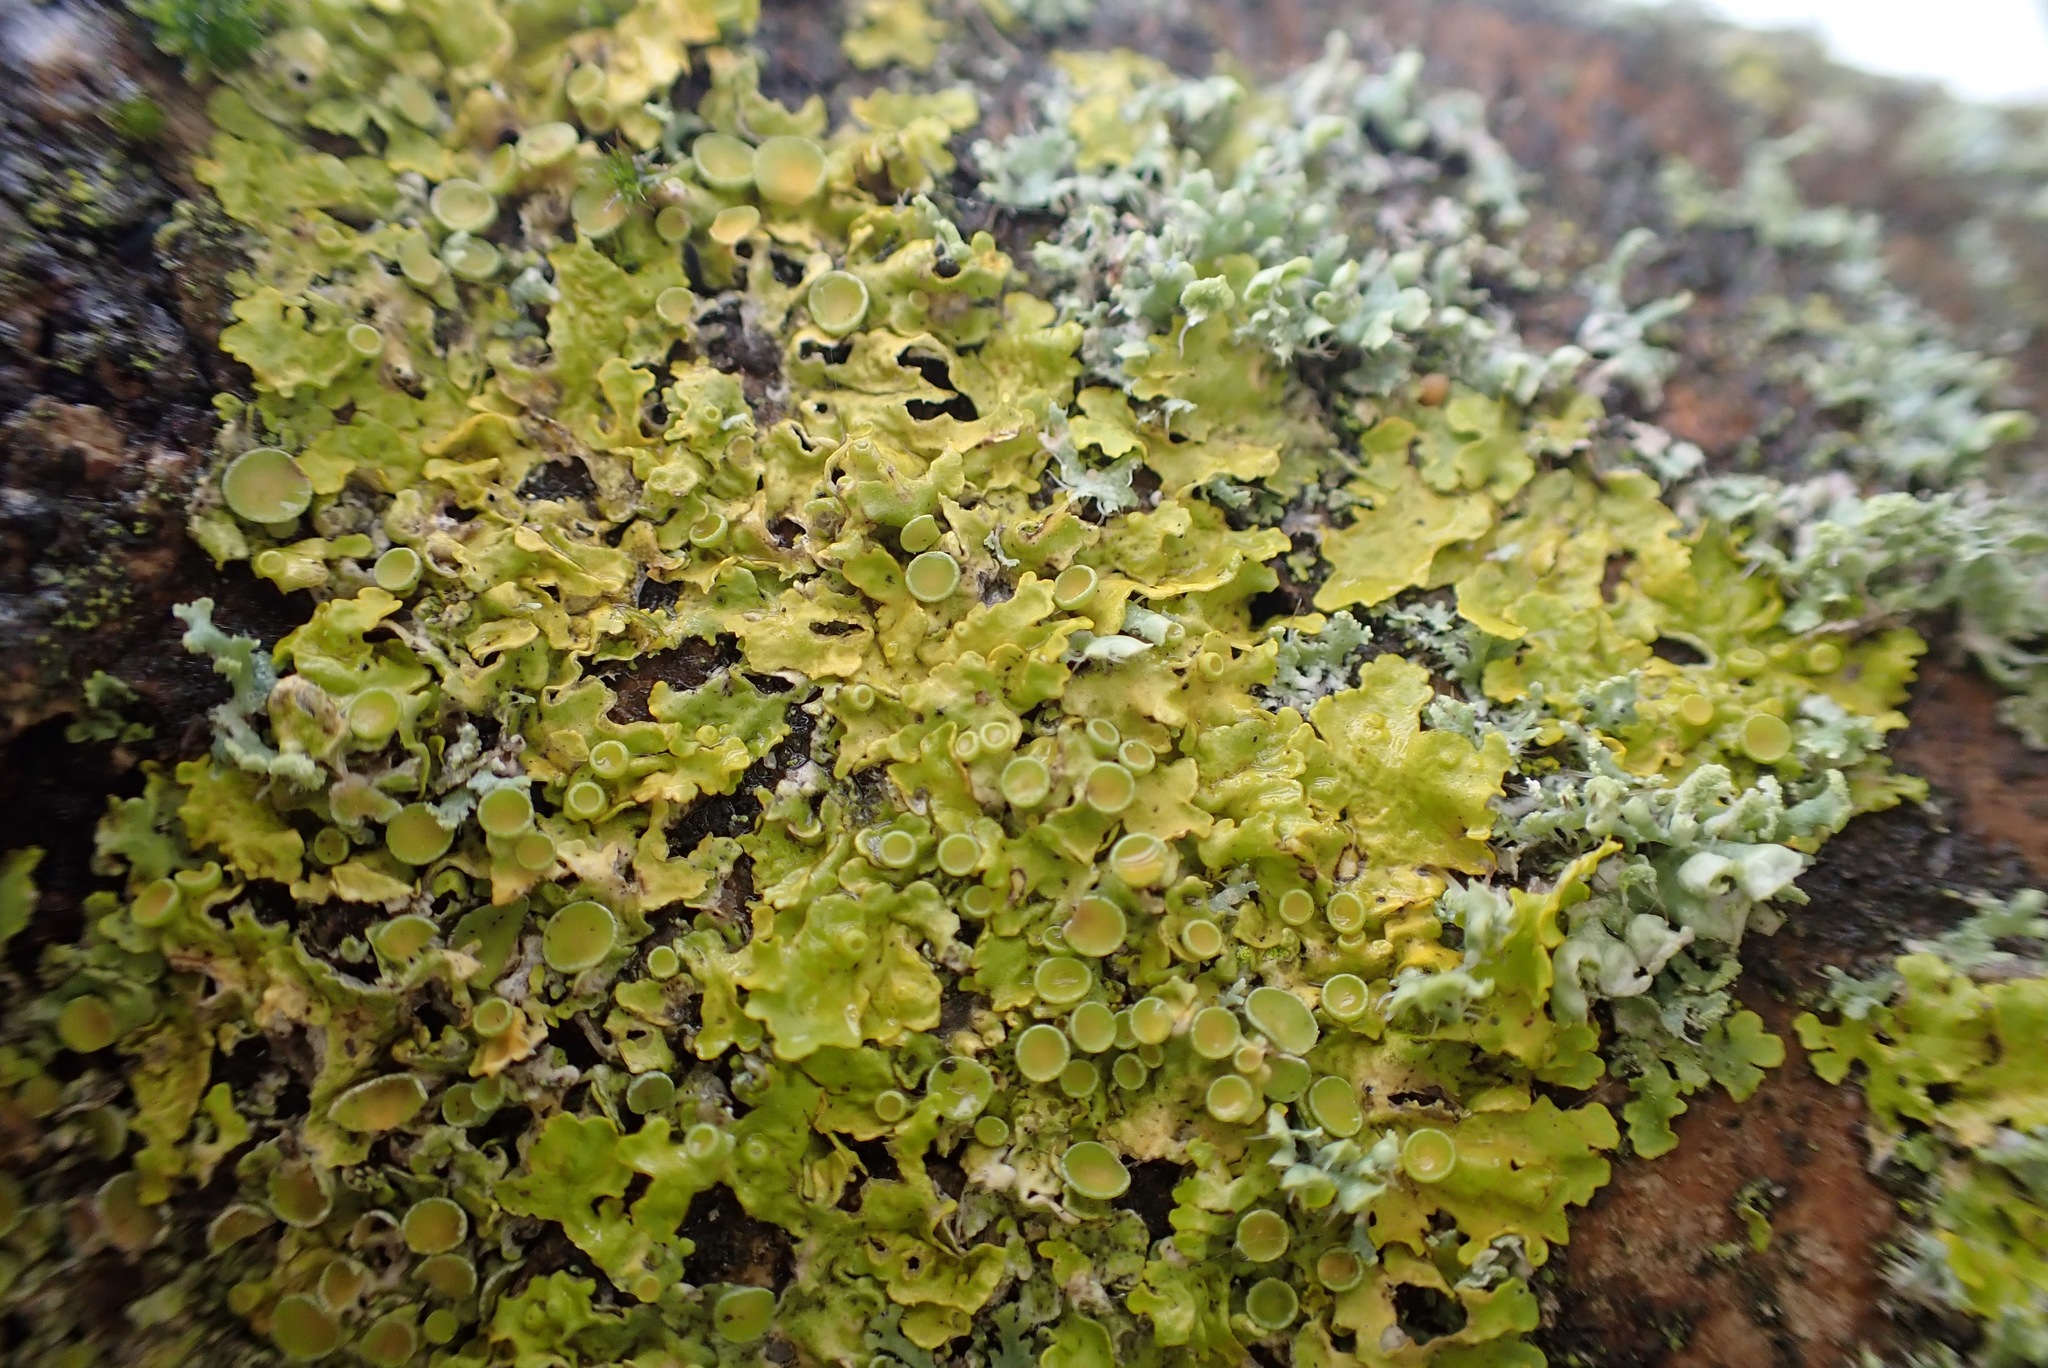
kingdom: Fungi
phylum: Ascomycota
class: Lecanoromycetes
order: Teloschistales
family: Teloschistaceae
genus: Xanthoria
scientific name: Xanthoria parietina
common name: Common orange lichen
